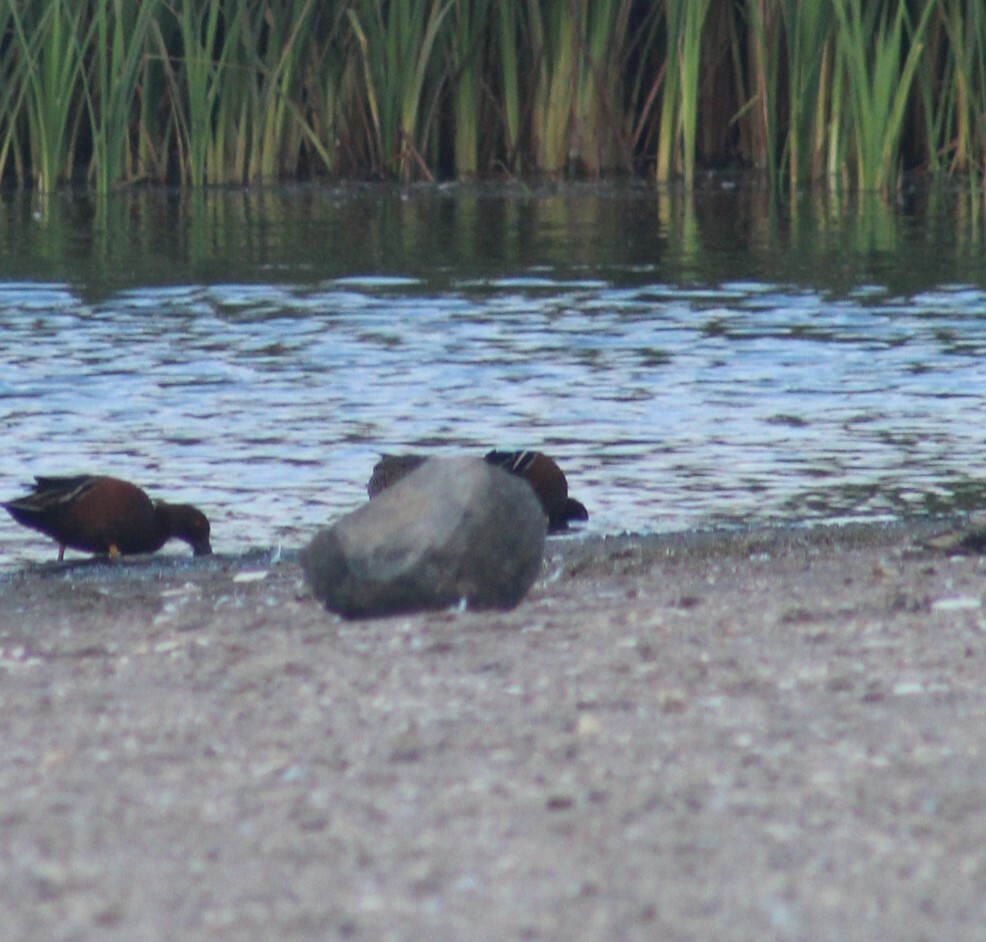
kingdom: Animalia
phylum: Chordata
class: Aves
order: Anseriformes
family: Anatidae
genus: Spatula
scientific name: Spatula cyanoptera
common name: Cinnamon teal
